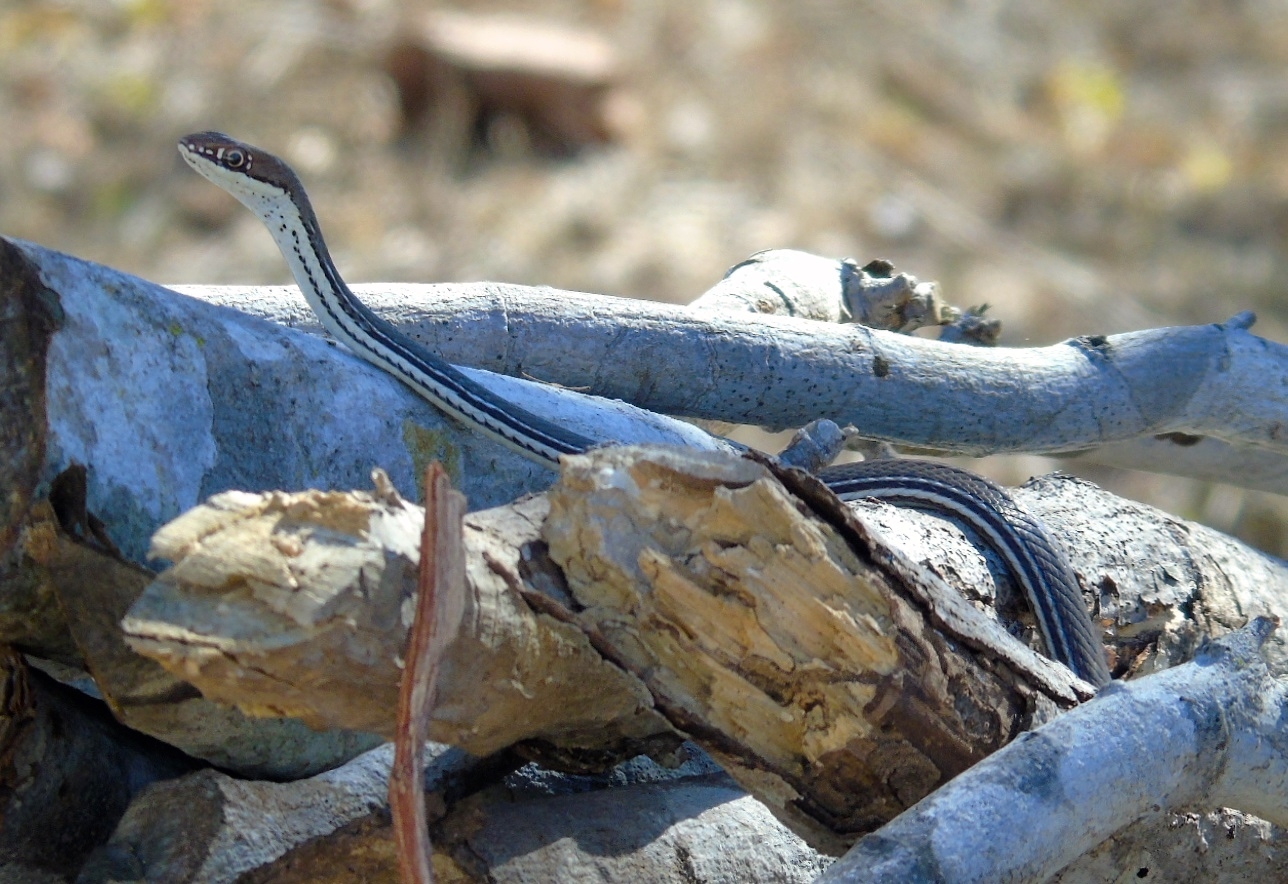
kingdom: Animalia
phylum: Chordata
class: Squamata
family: Colubridae
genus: Masticophis
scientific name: Masticophis bilineatus
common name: Sonoran whipsnake
